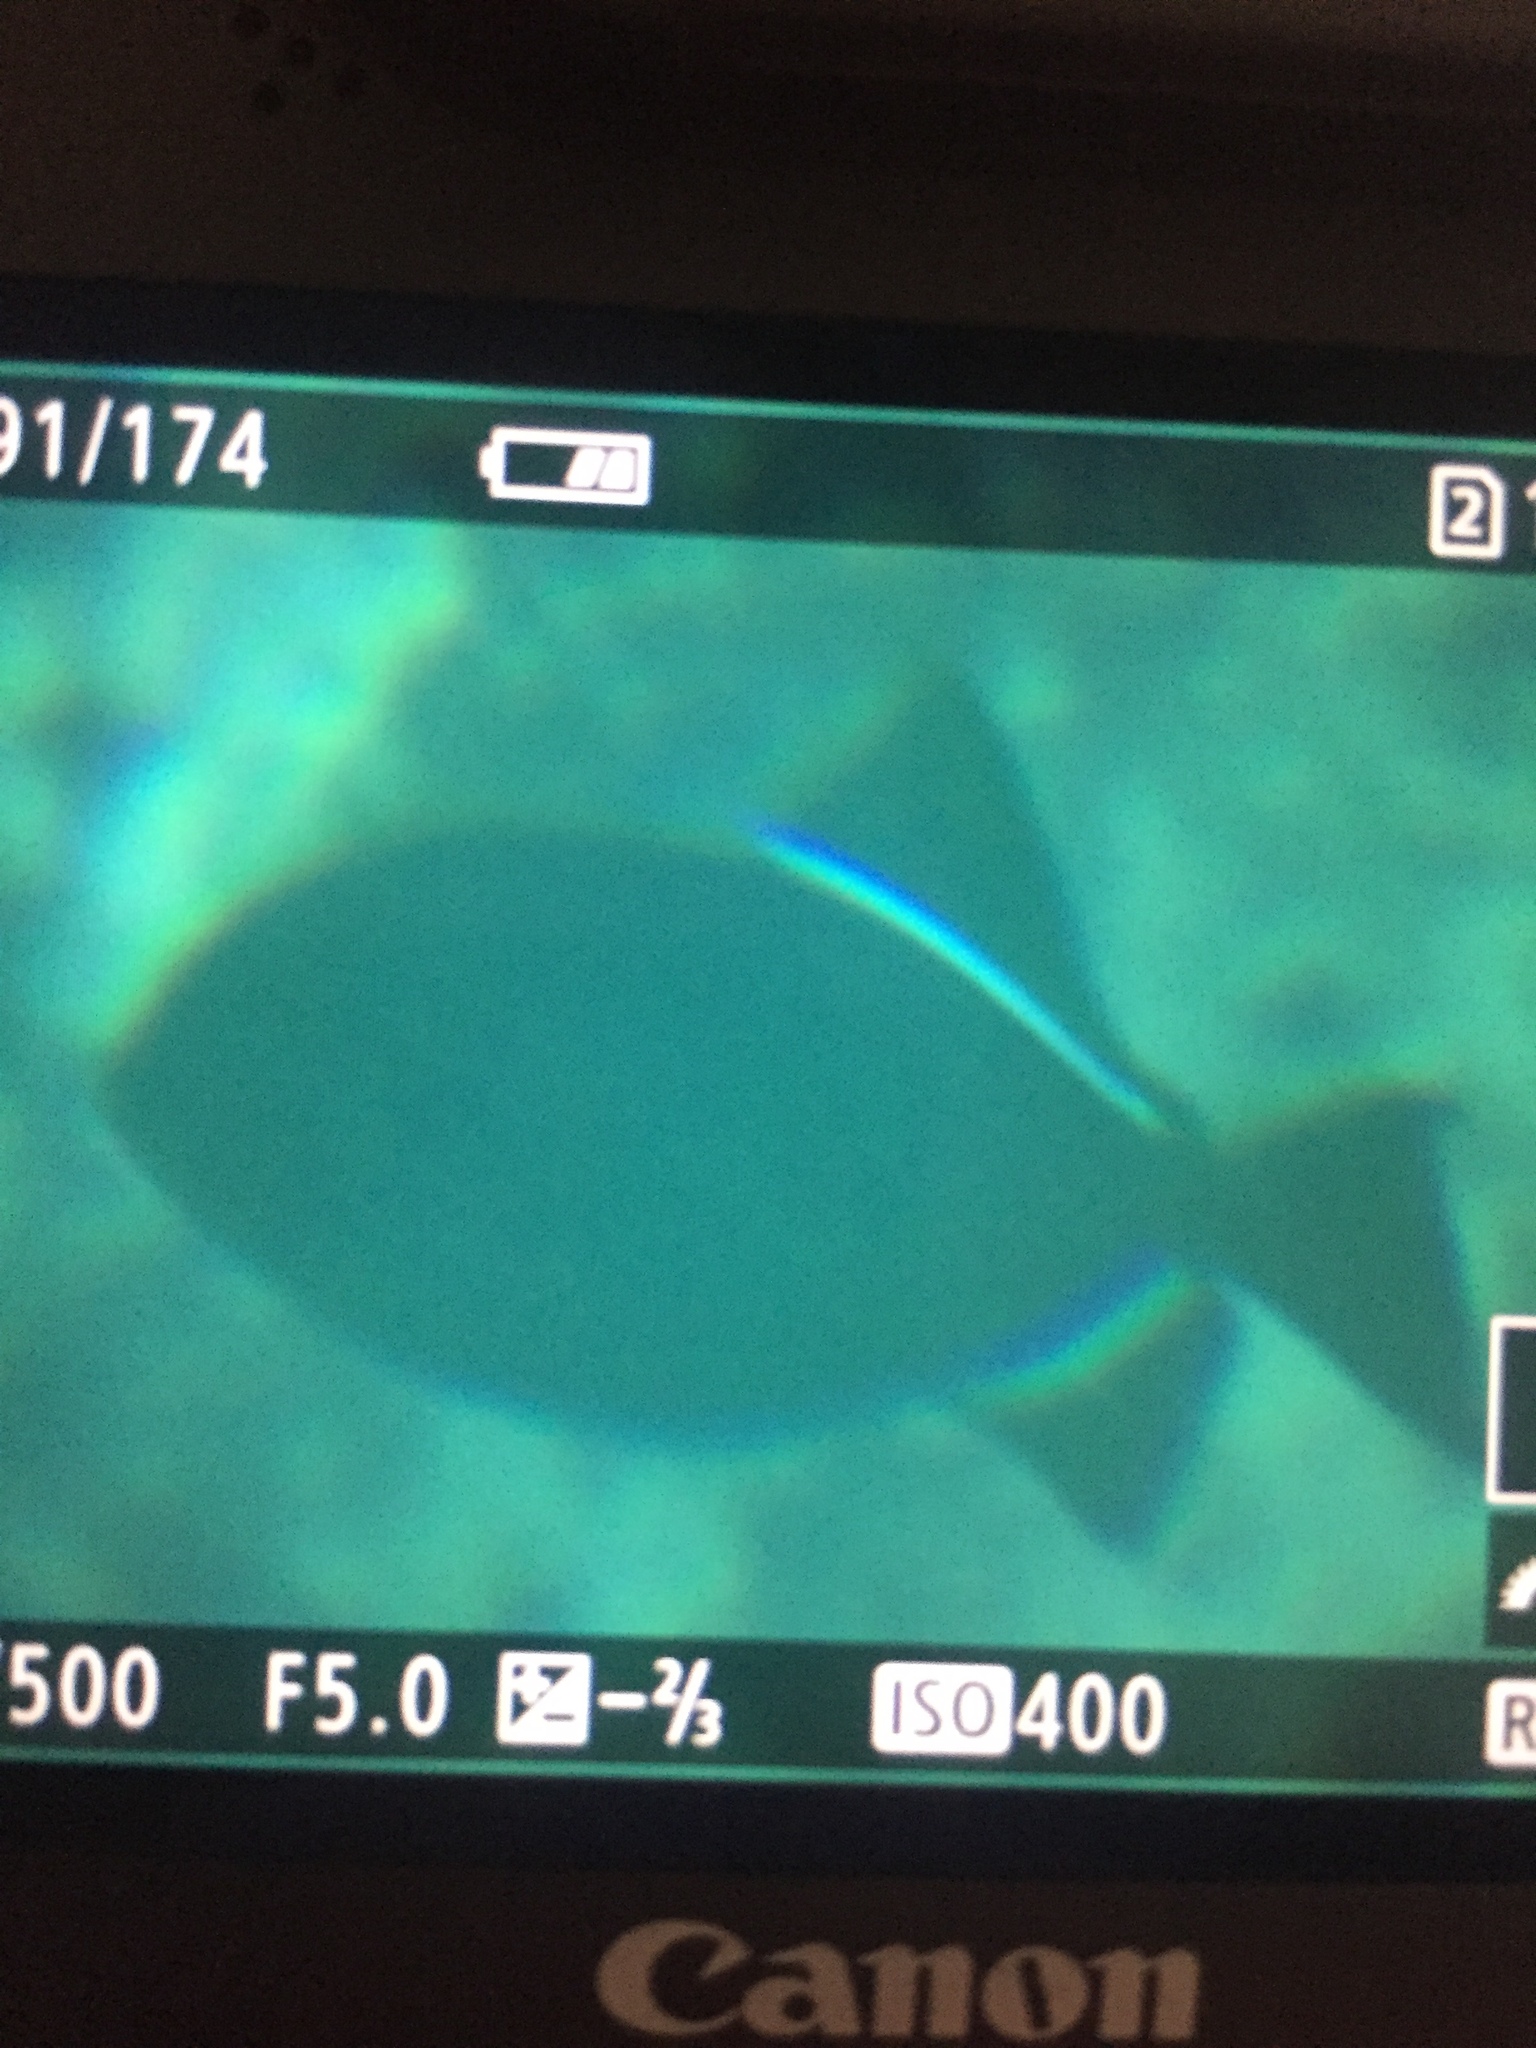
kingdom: Animalia
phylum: Chordata
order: Tetraodontiformes
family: Balistidae
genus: Melichthys
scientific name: Melichthys niger
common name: Black durgon
